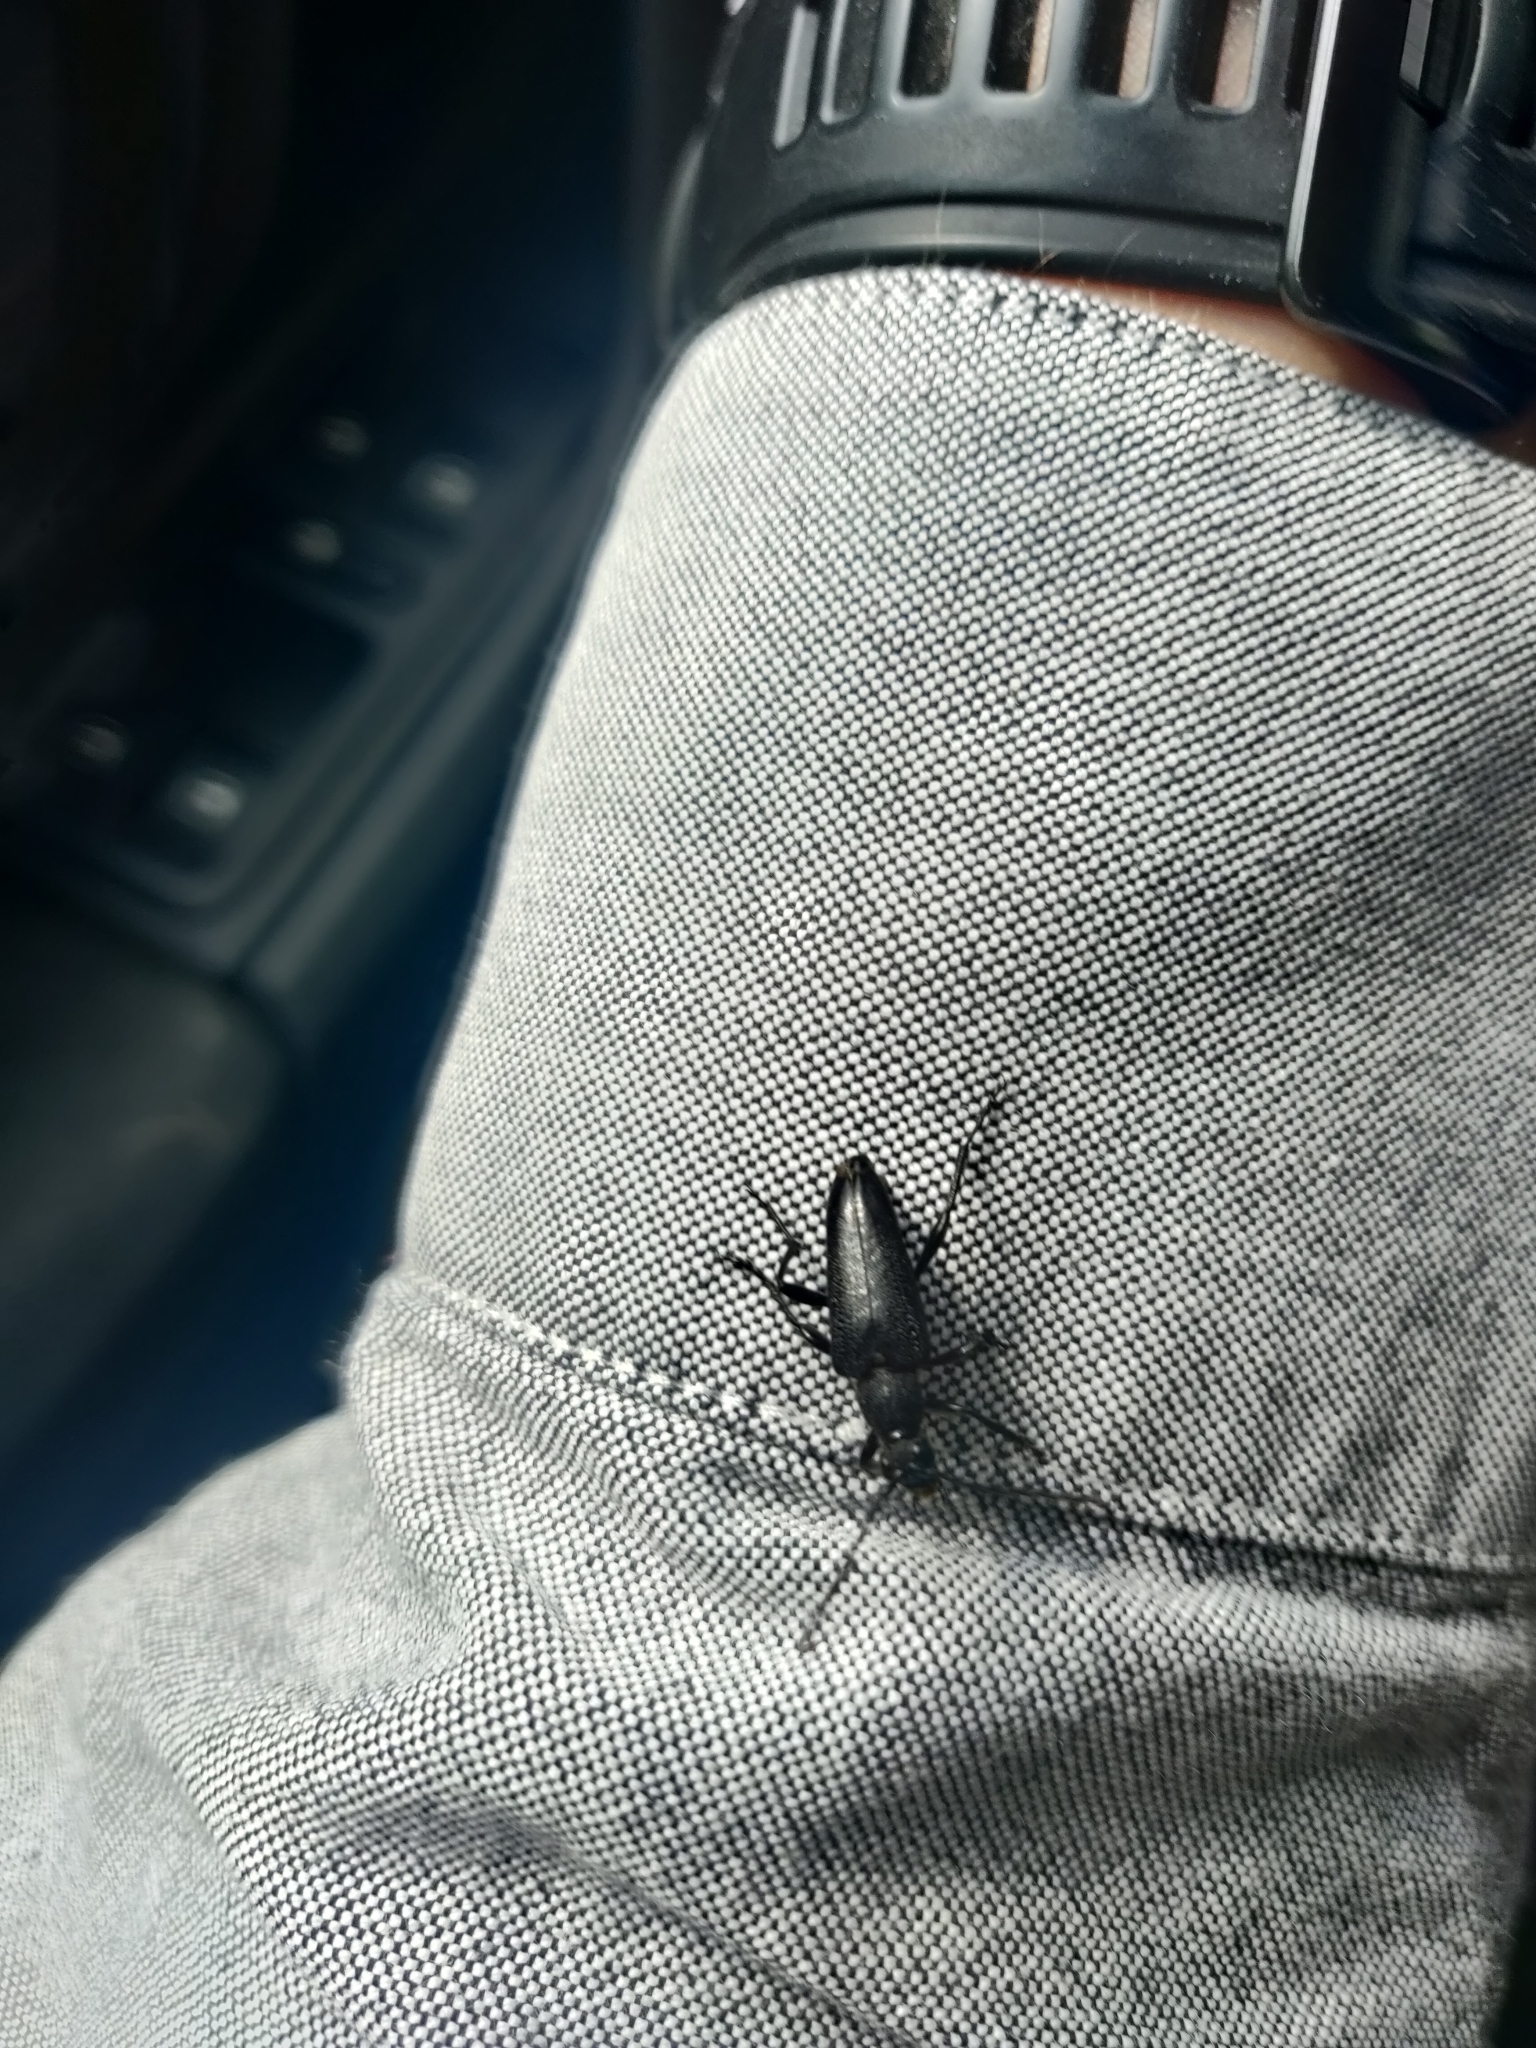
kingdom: Animalia
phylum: Arthropoda
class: Insecta
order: Coleoptera
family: Cerambycidae
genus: Stictoleptura
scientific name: Stictoleptura scutellata
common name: Large black longhorn beetle
